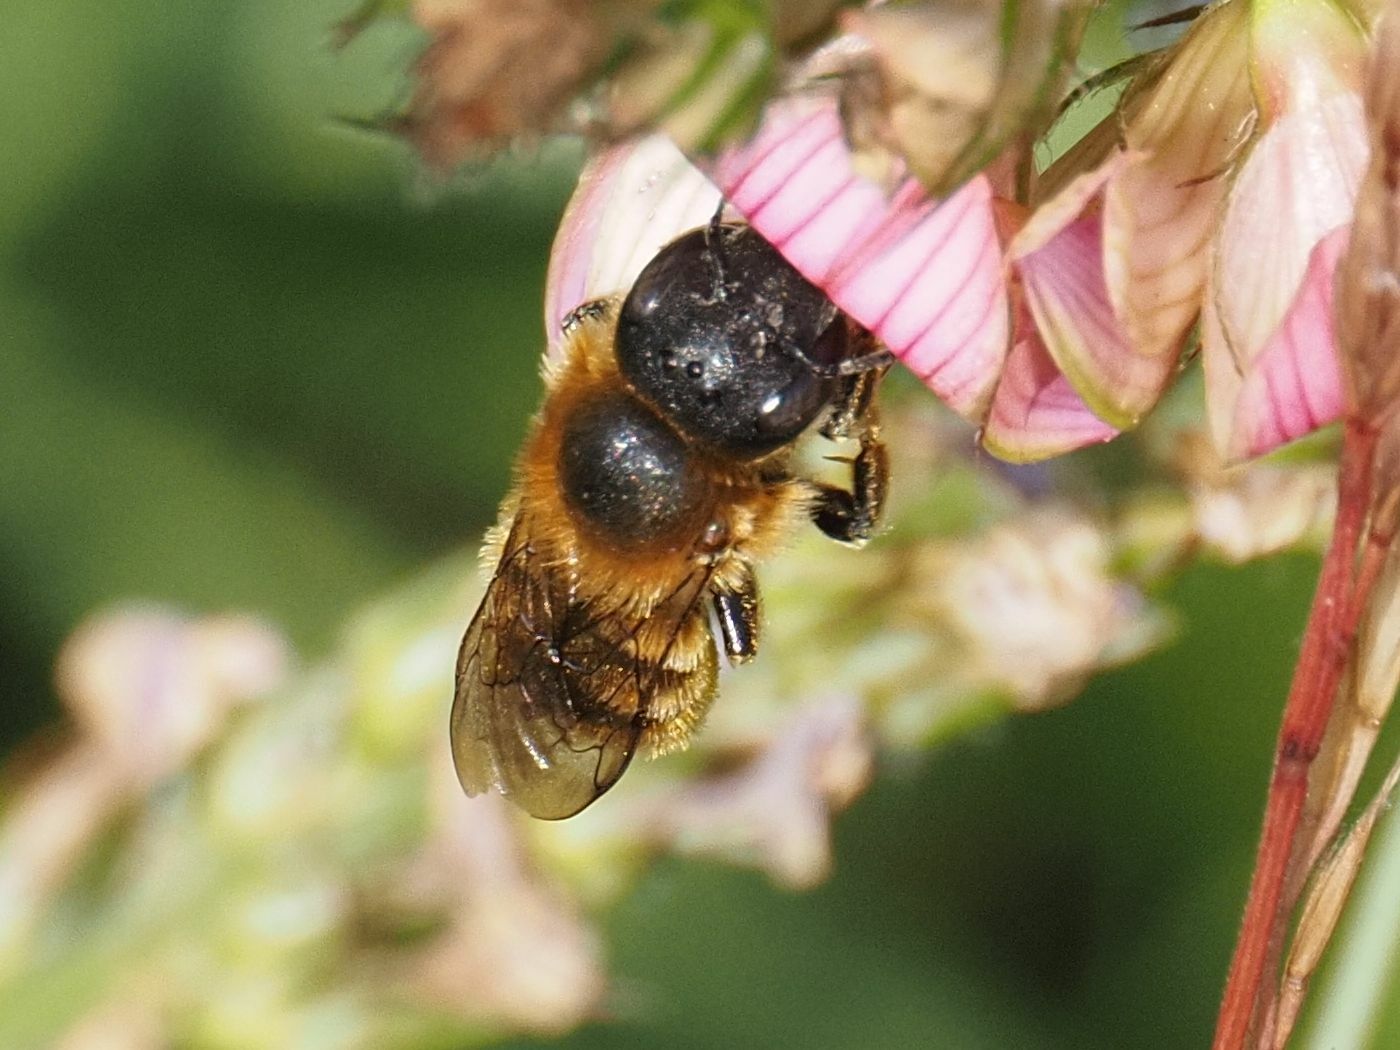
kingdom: Animalia
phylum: Arthropoda
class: Insecta
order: Hymenoptera
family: Megachilidae
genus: Osmia
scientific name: Osmia aurulenta
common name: Gold-fringed mason bee
